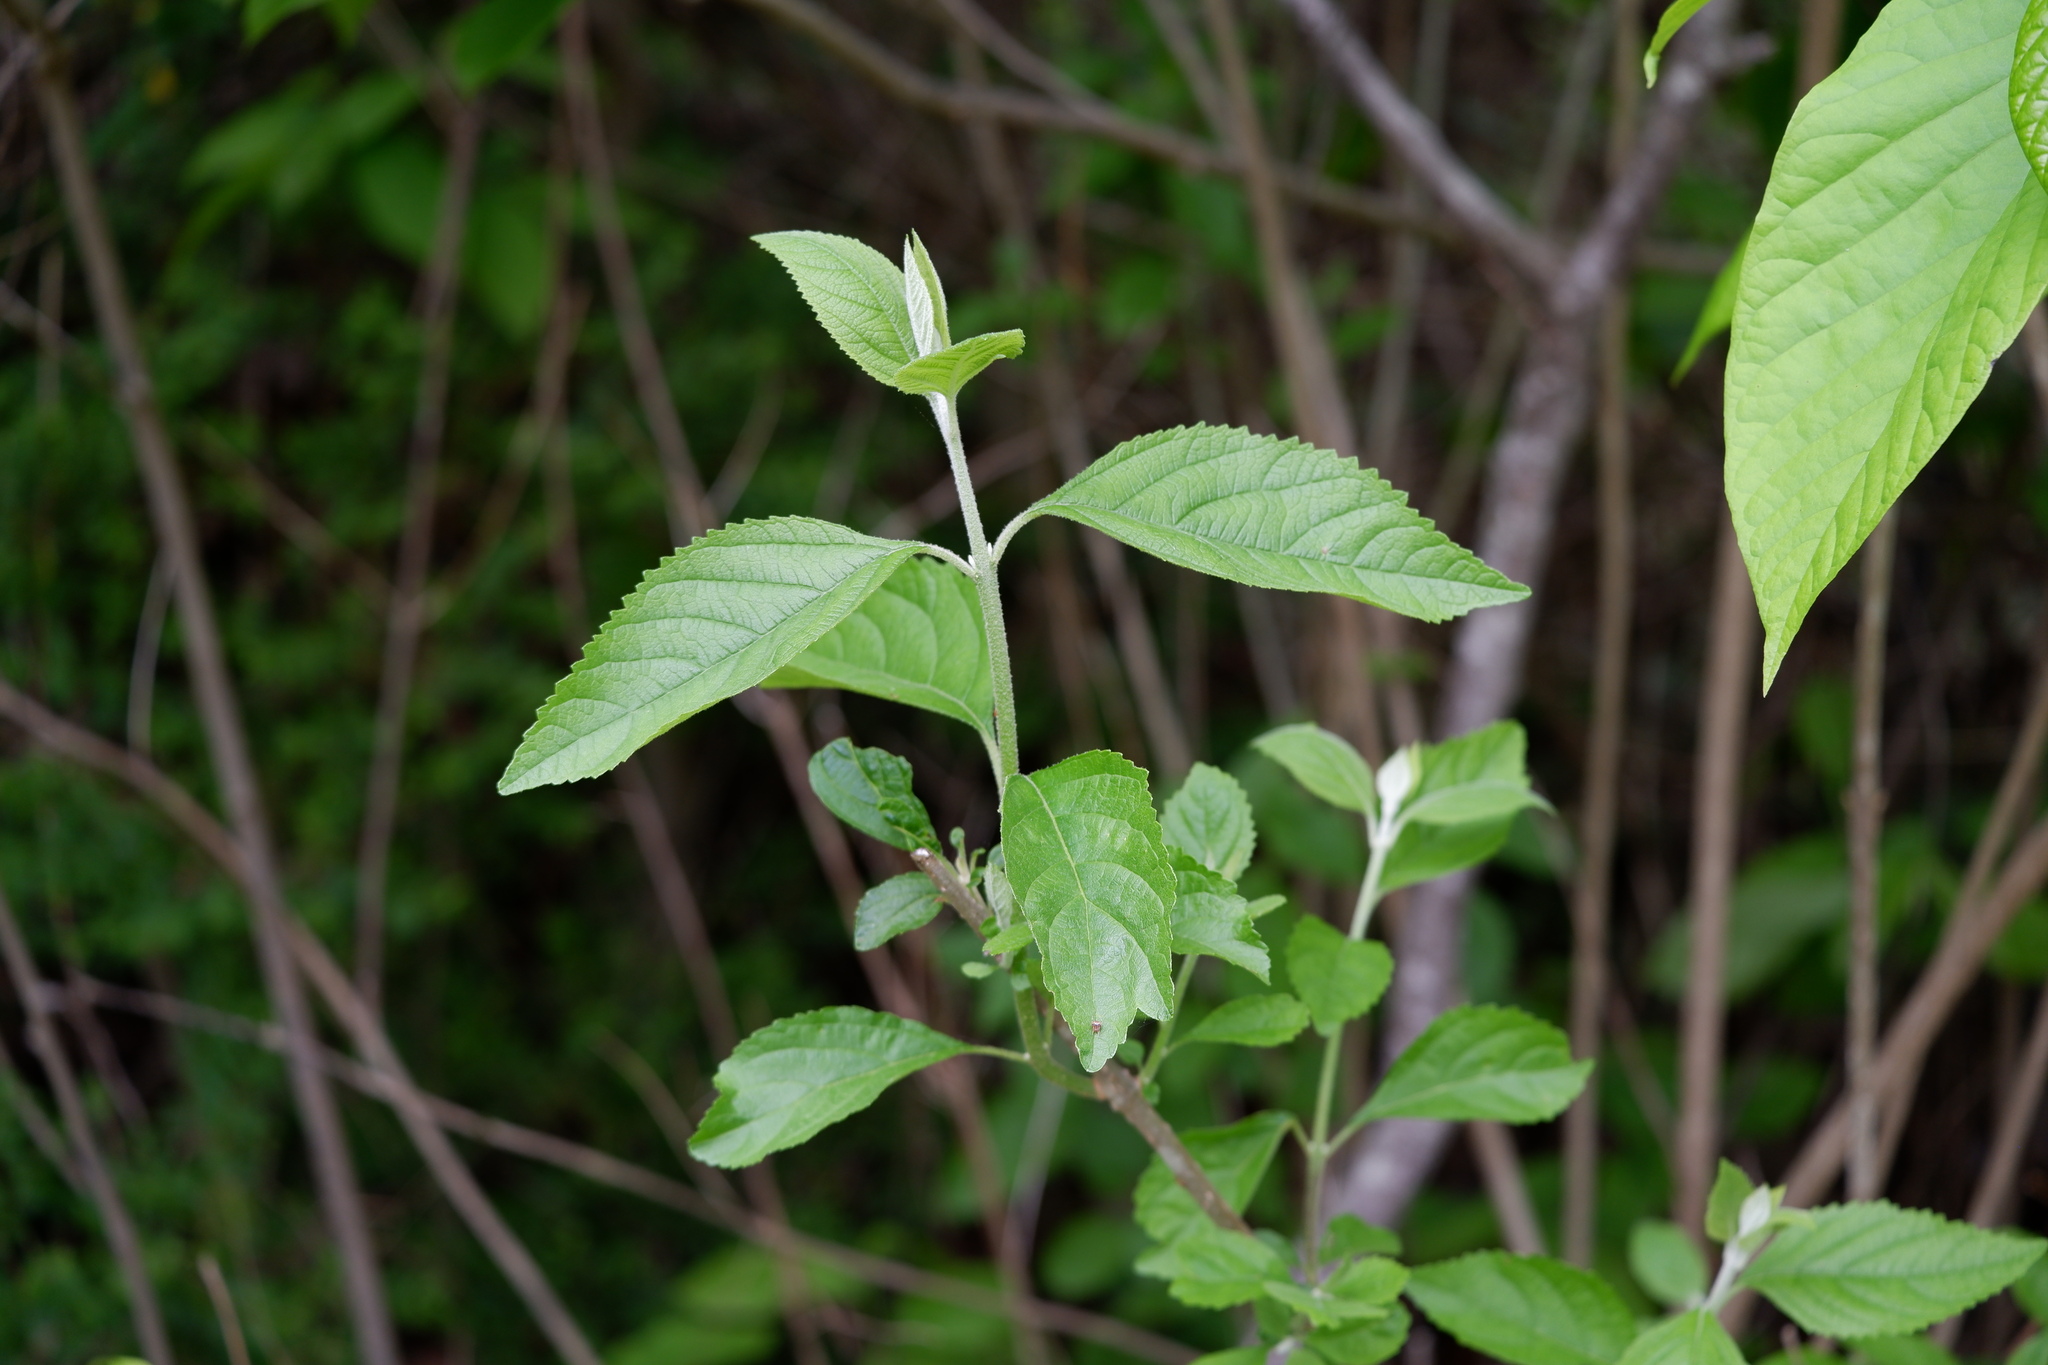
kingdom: Plantae
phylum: Tracheophyta
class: Magnoliopsida
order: Lamiales
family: Lamiaceae
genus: Callicarpa
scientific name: Callicarpa americana
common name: American beautyberry
